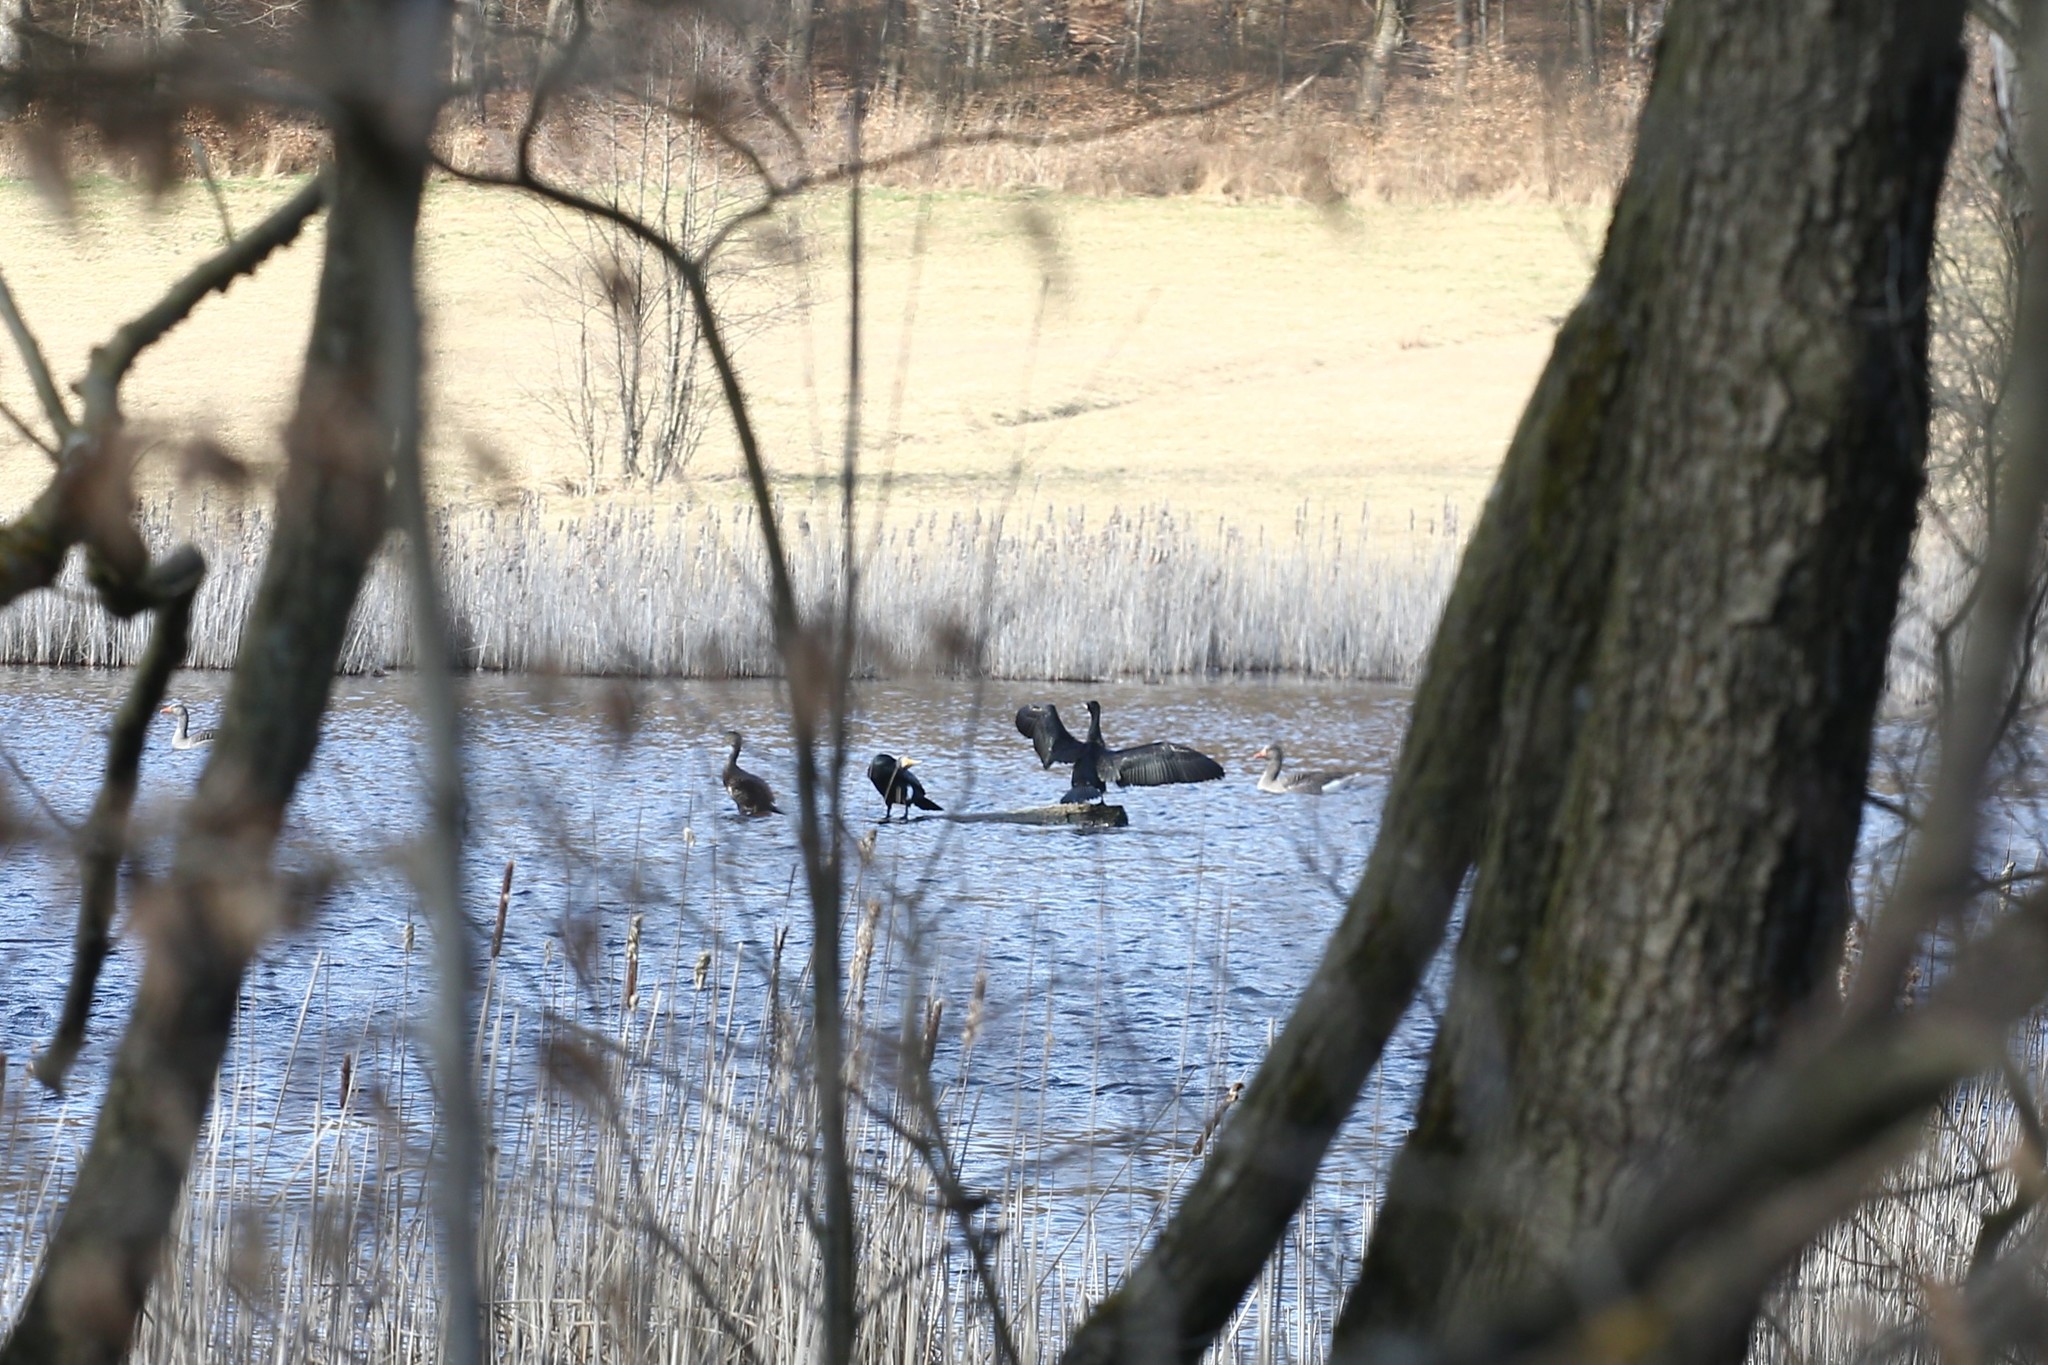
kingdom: Animalia
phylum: Chordata
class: Aves
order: Suliformes
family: Phalacrocoracidae
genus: Phalacrocorax
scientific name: Phalacrocorax carbo
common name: Great cormorant
